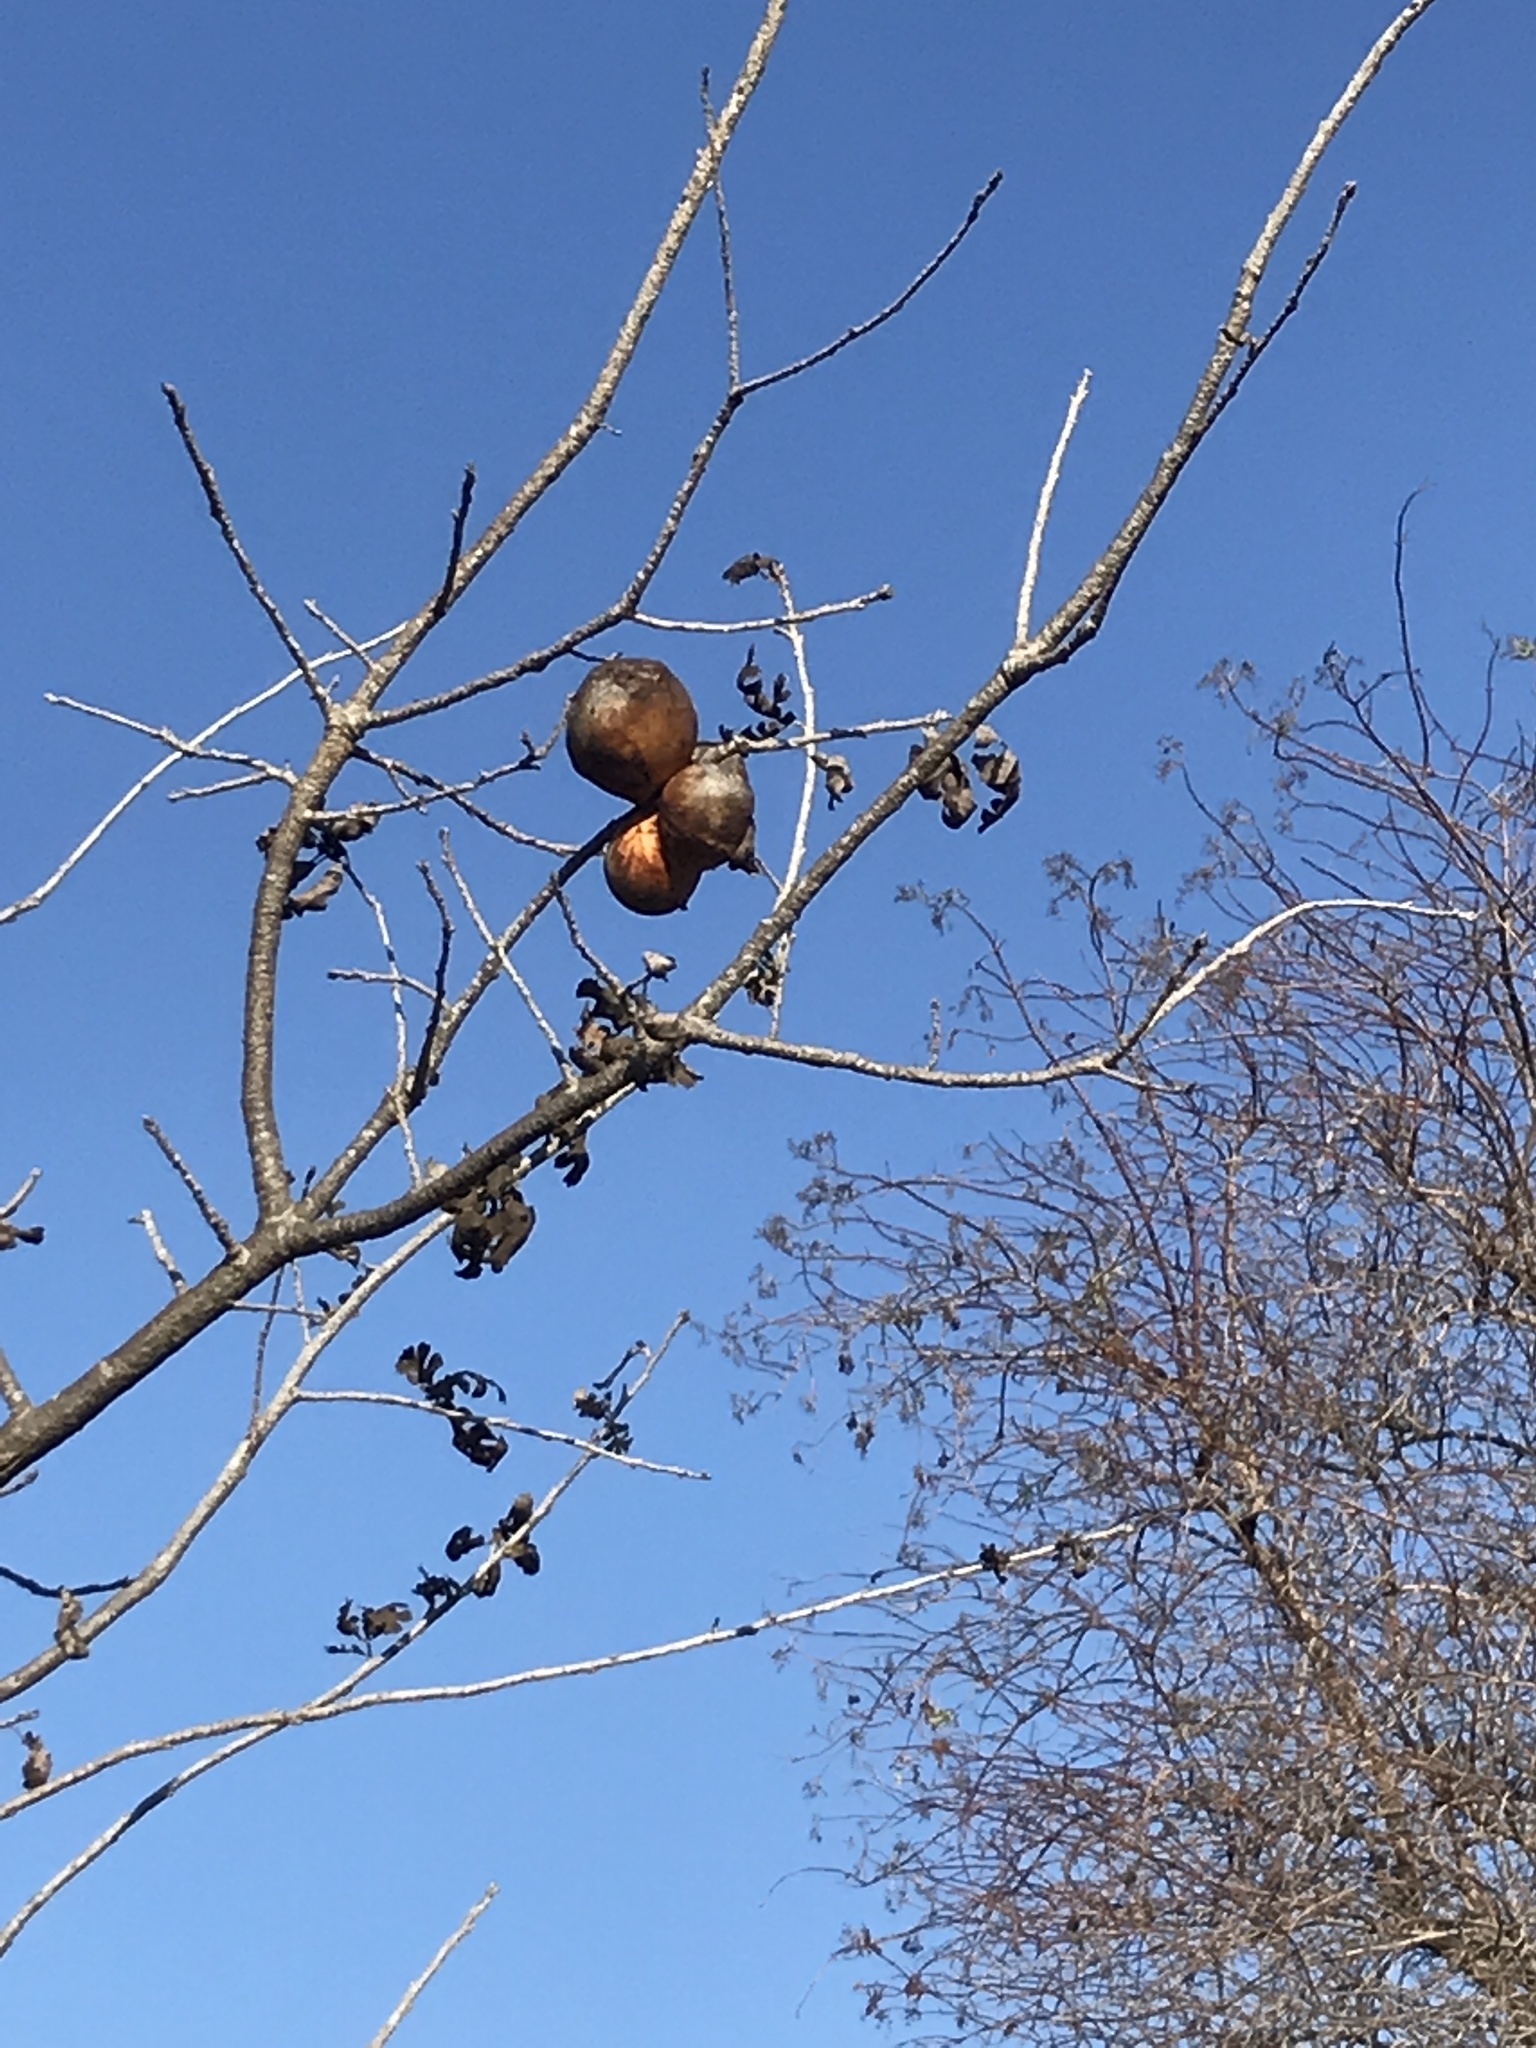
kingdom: Animalia
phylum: Arthropoda
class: Insecta
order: Hymenoptera
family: Cynipidae
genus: Andricus
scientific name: Andricus quercuscalifornicus
